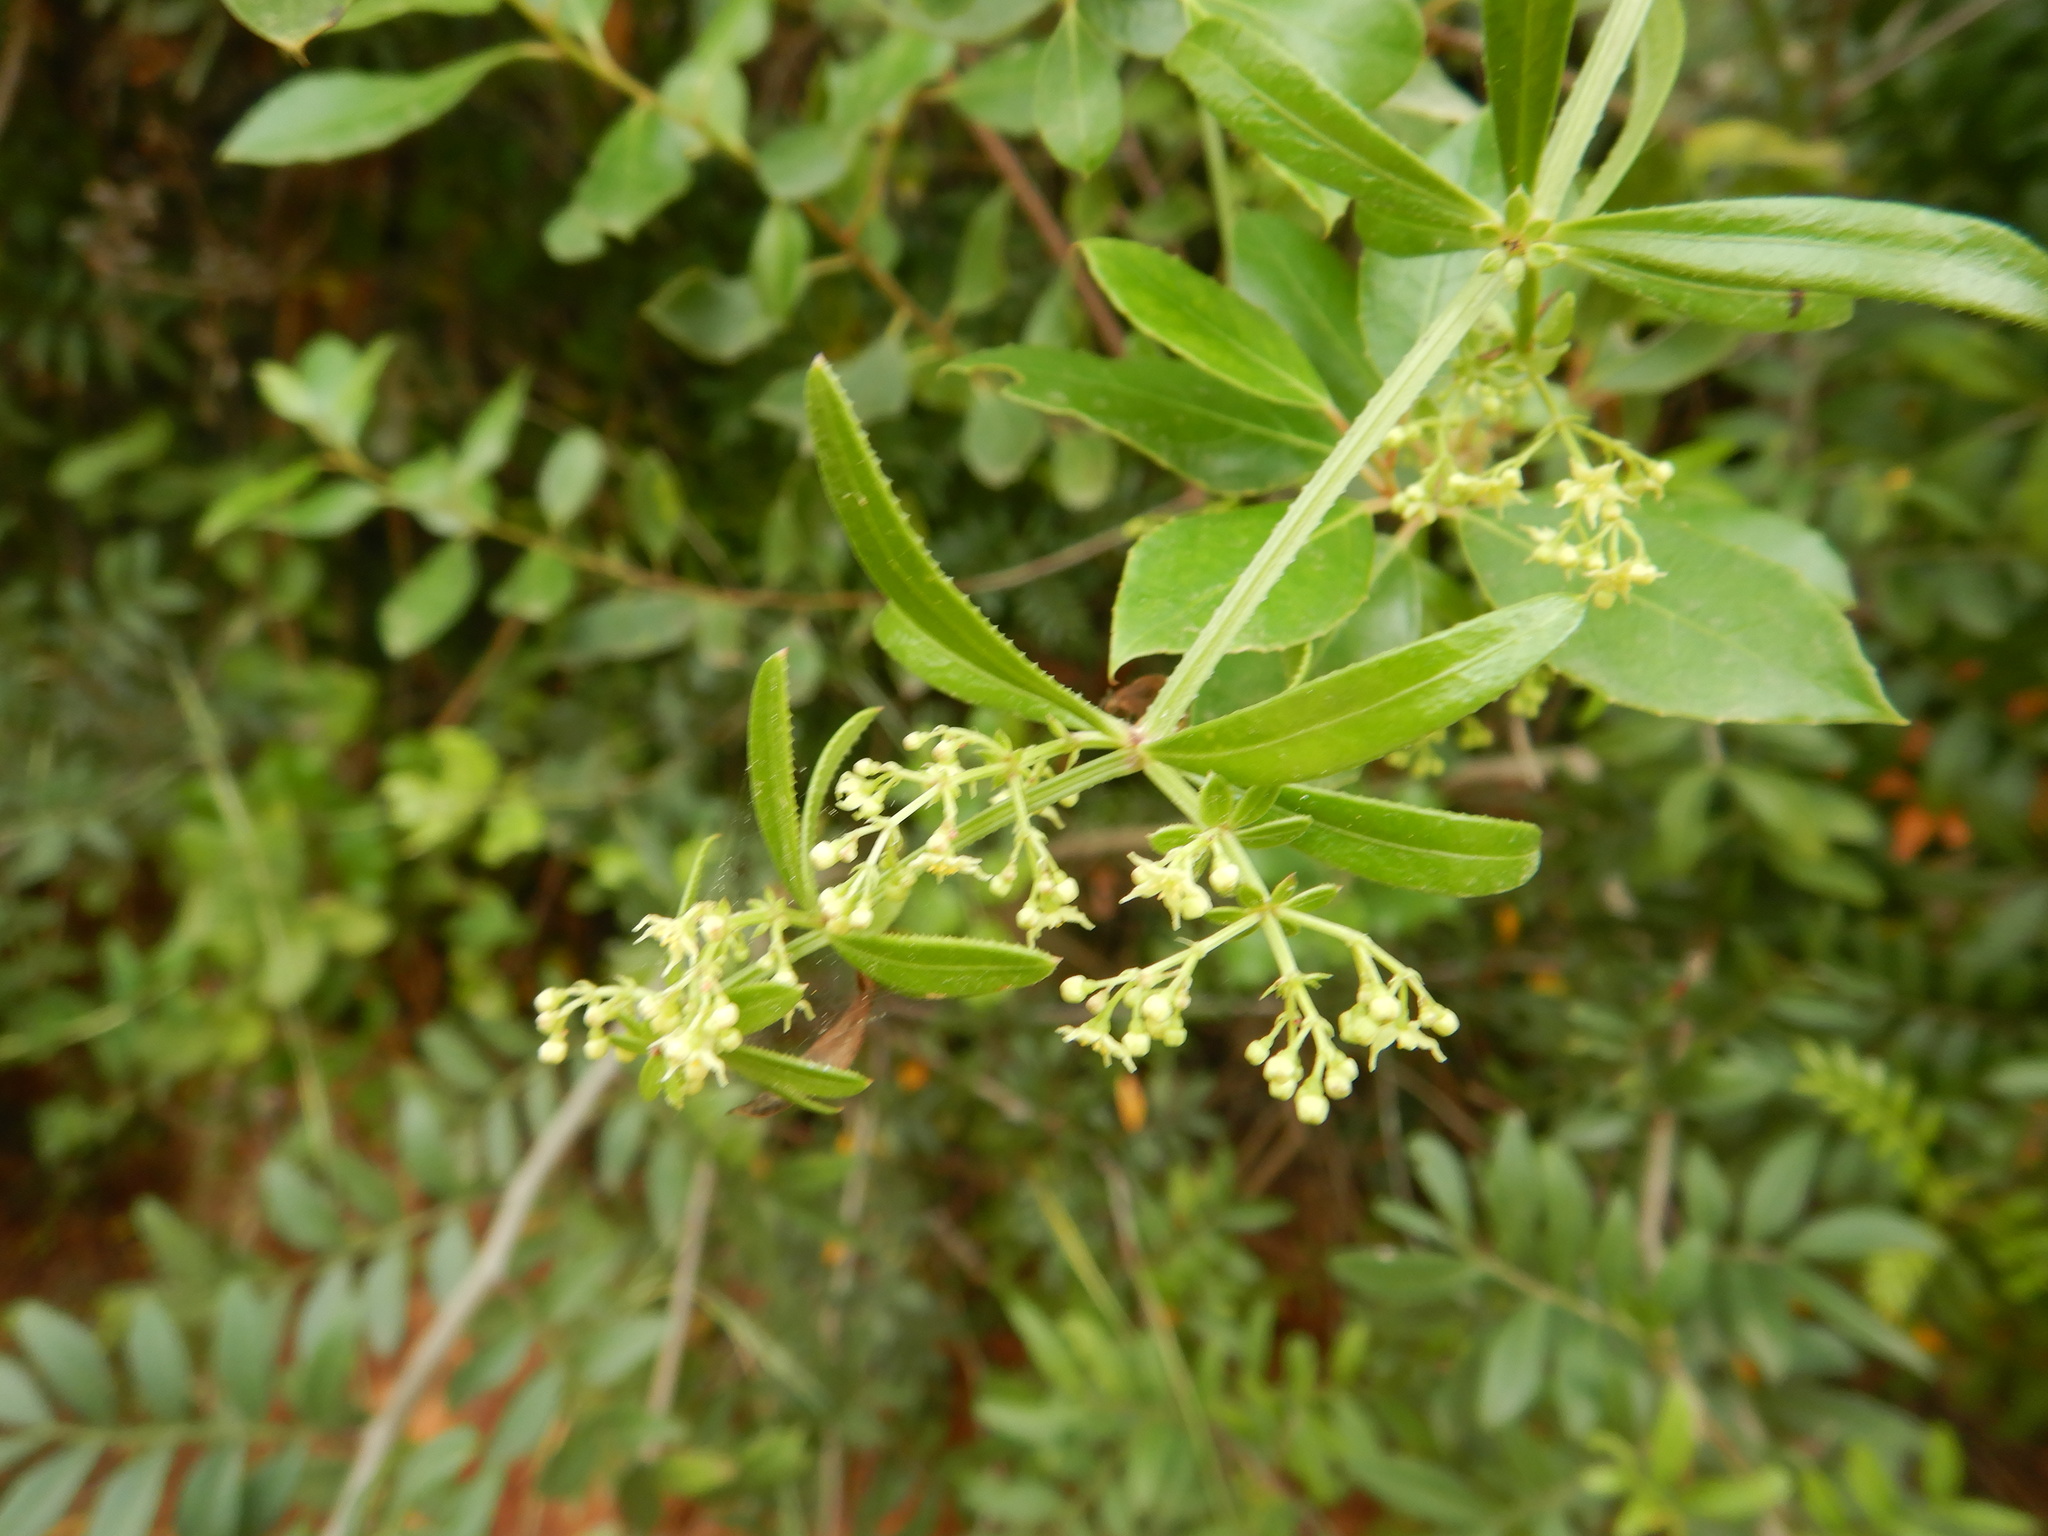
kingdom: Plantae
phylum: Tracheophyta
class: Magnoliopsida
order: Gentianales
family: Rubiaceae
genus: Rubia
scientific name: Rubia peregrina
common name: Wild madder
